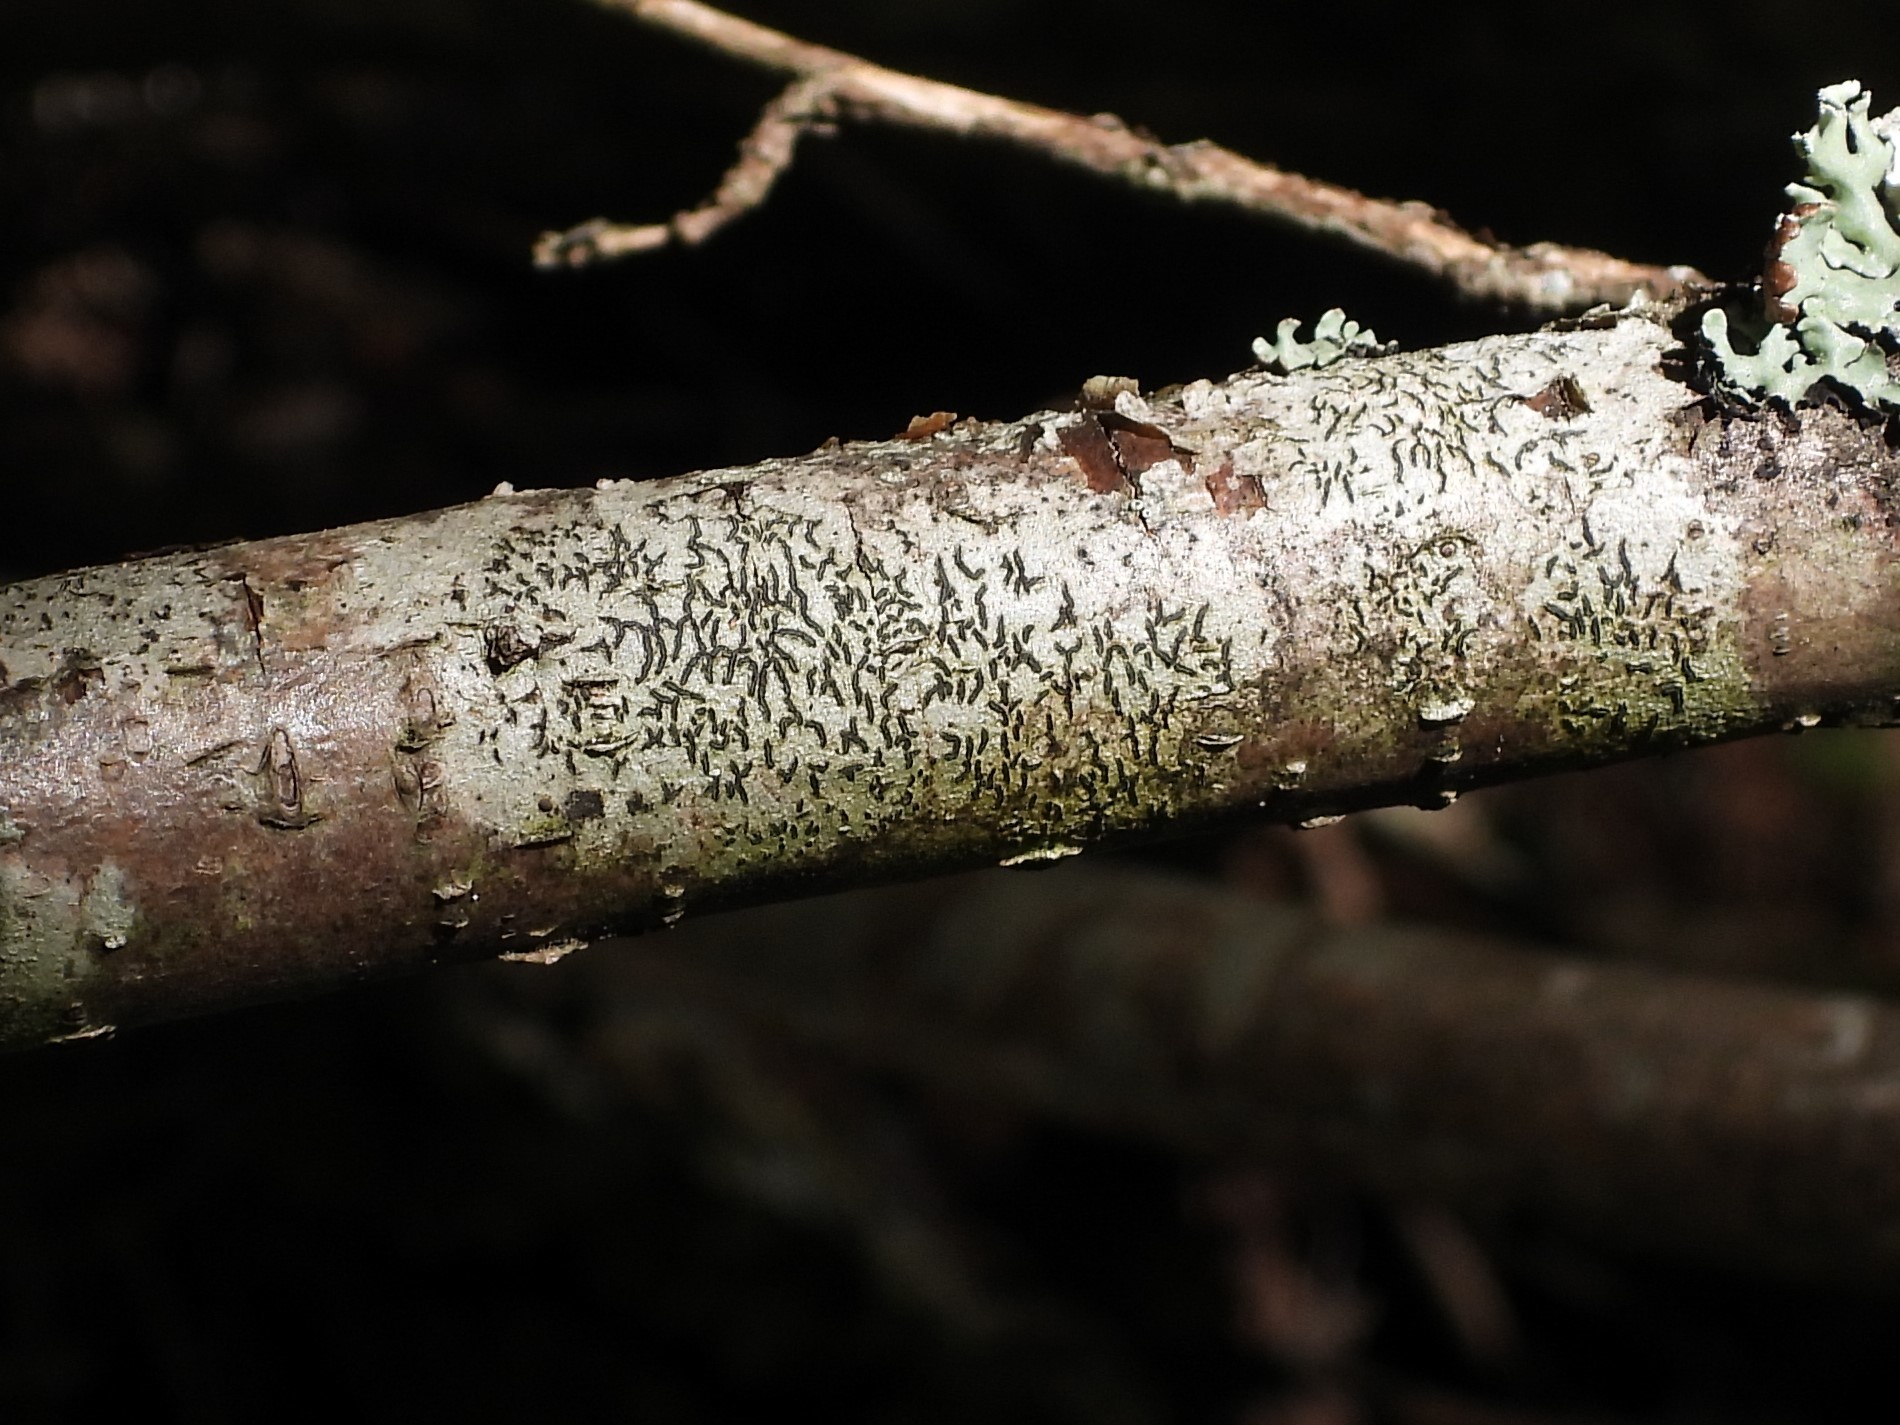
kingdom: Fungi
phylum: Ascomycota
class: Lecanoromycetes
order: Ostropales
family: Graphidaceae
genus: Graphis
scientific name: Graphis scripta
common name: Script lichen
